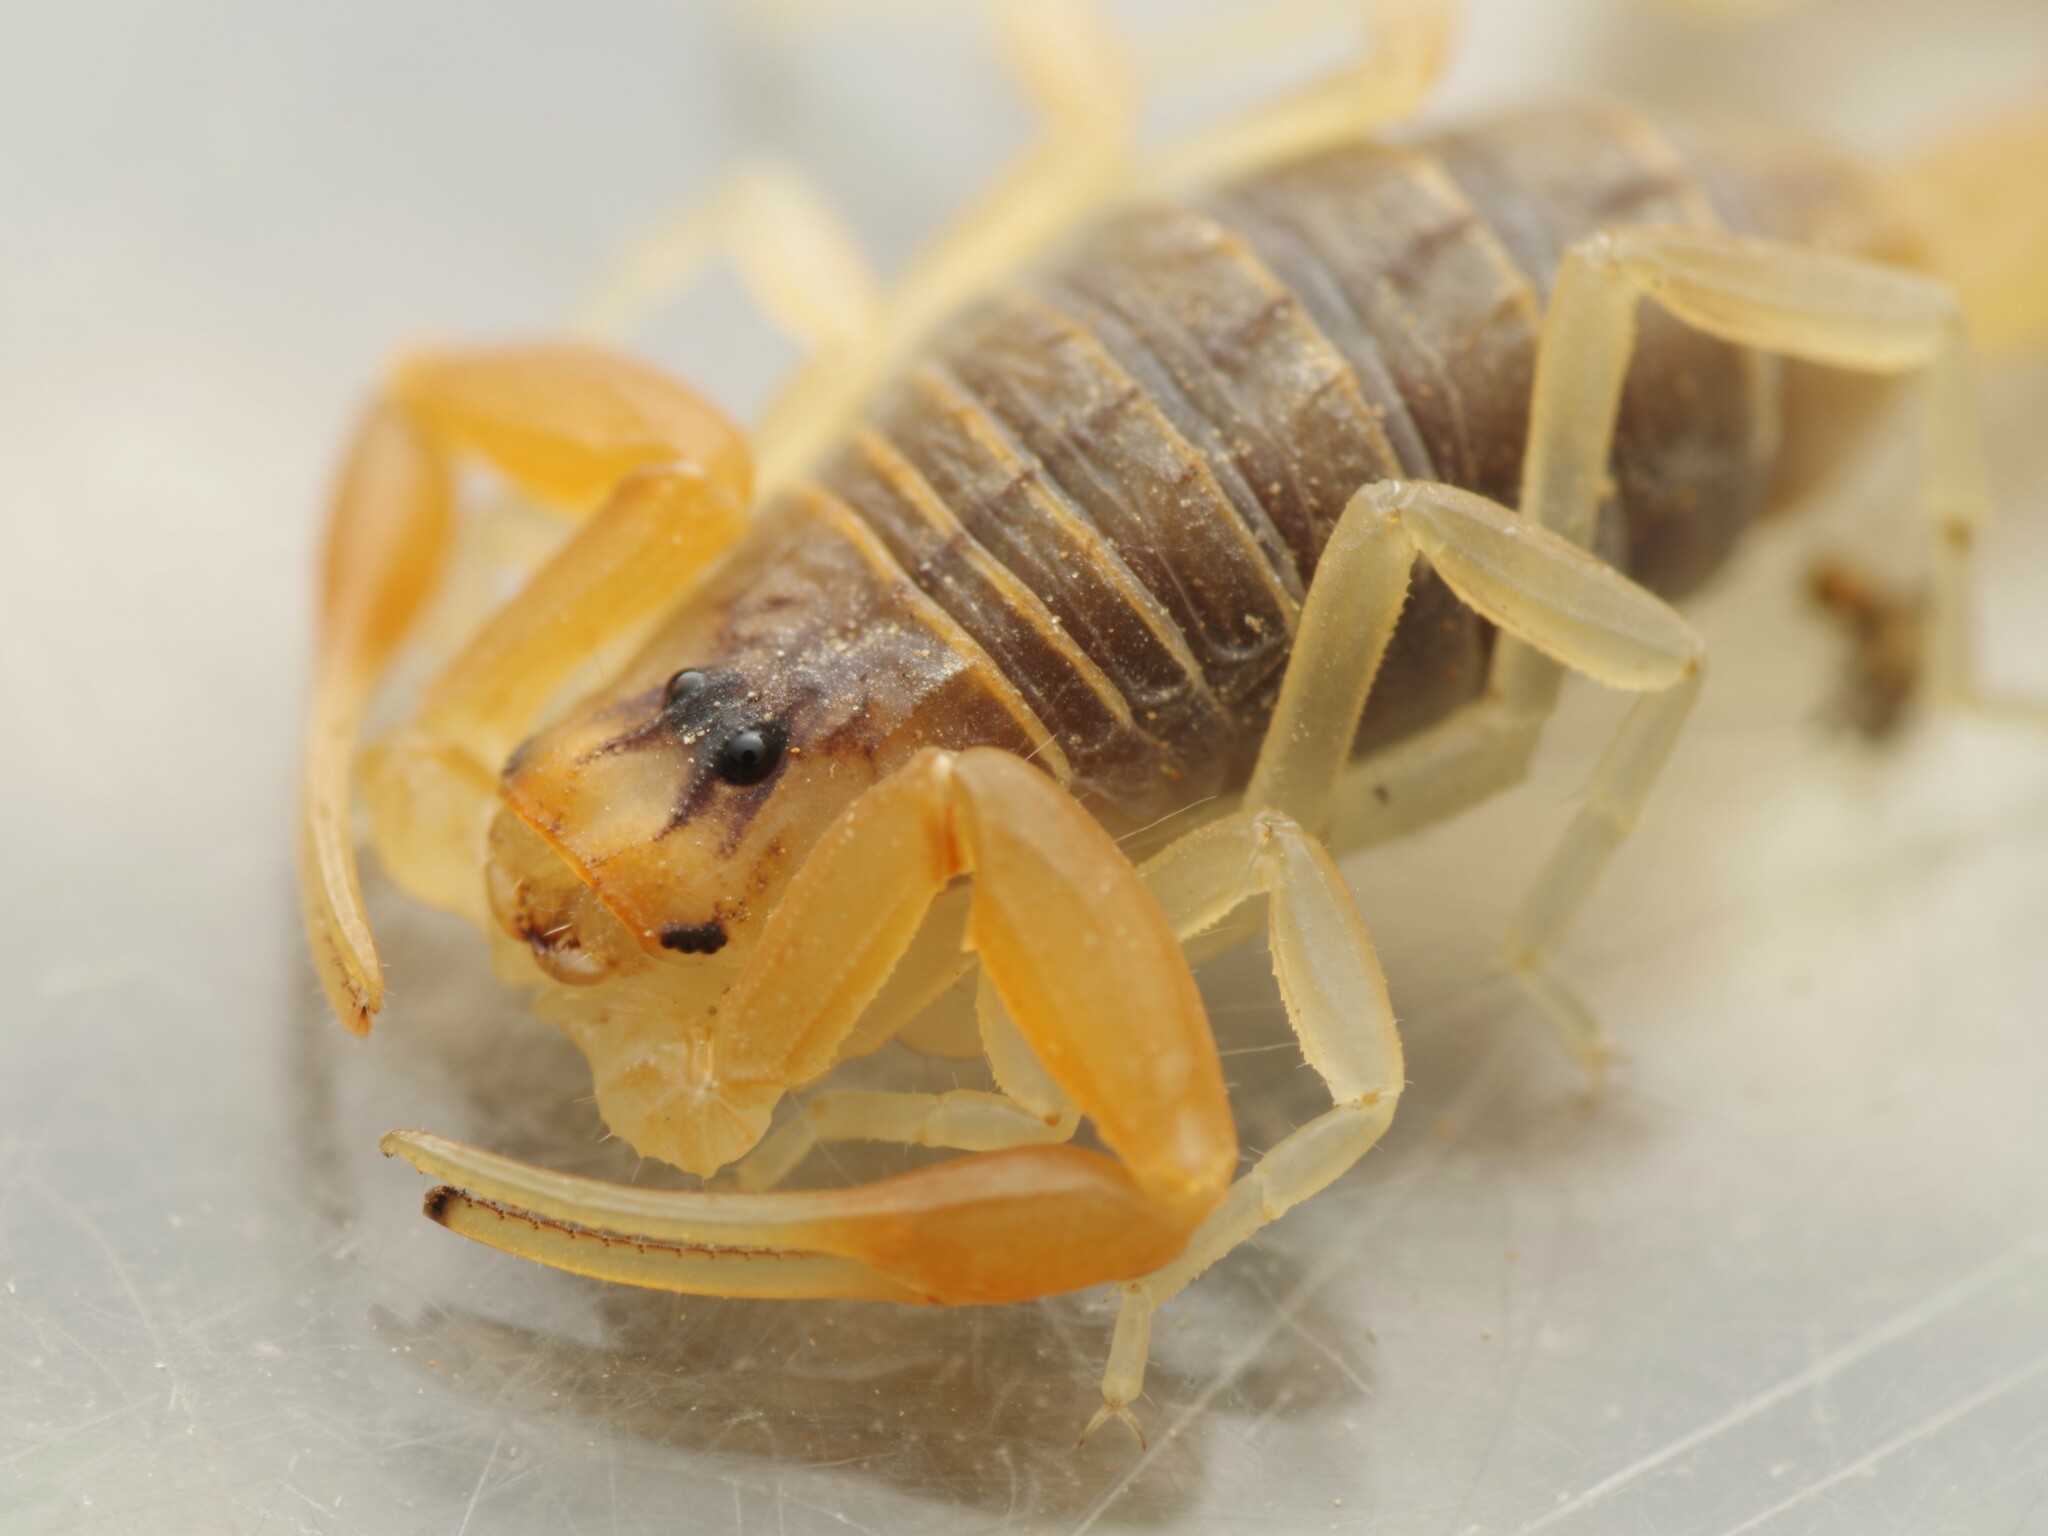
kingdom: Animalia
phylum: Arthropoda
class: Arachnida
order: Scorpiones
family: Buthidae
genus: Buthus
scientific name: Buthus pyrenaeus
